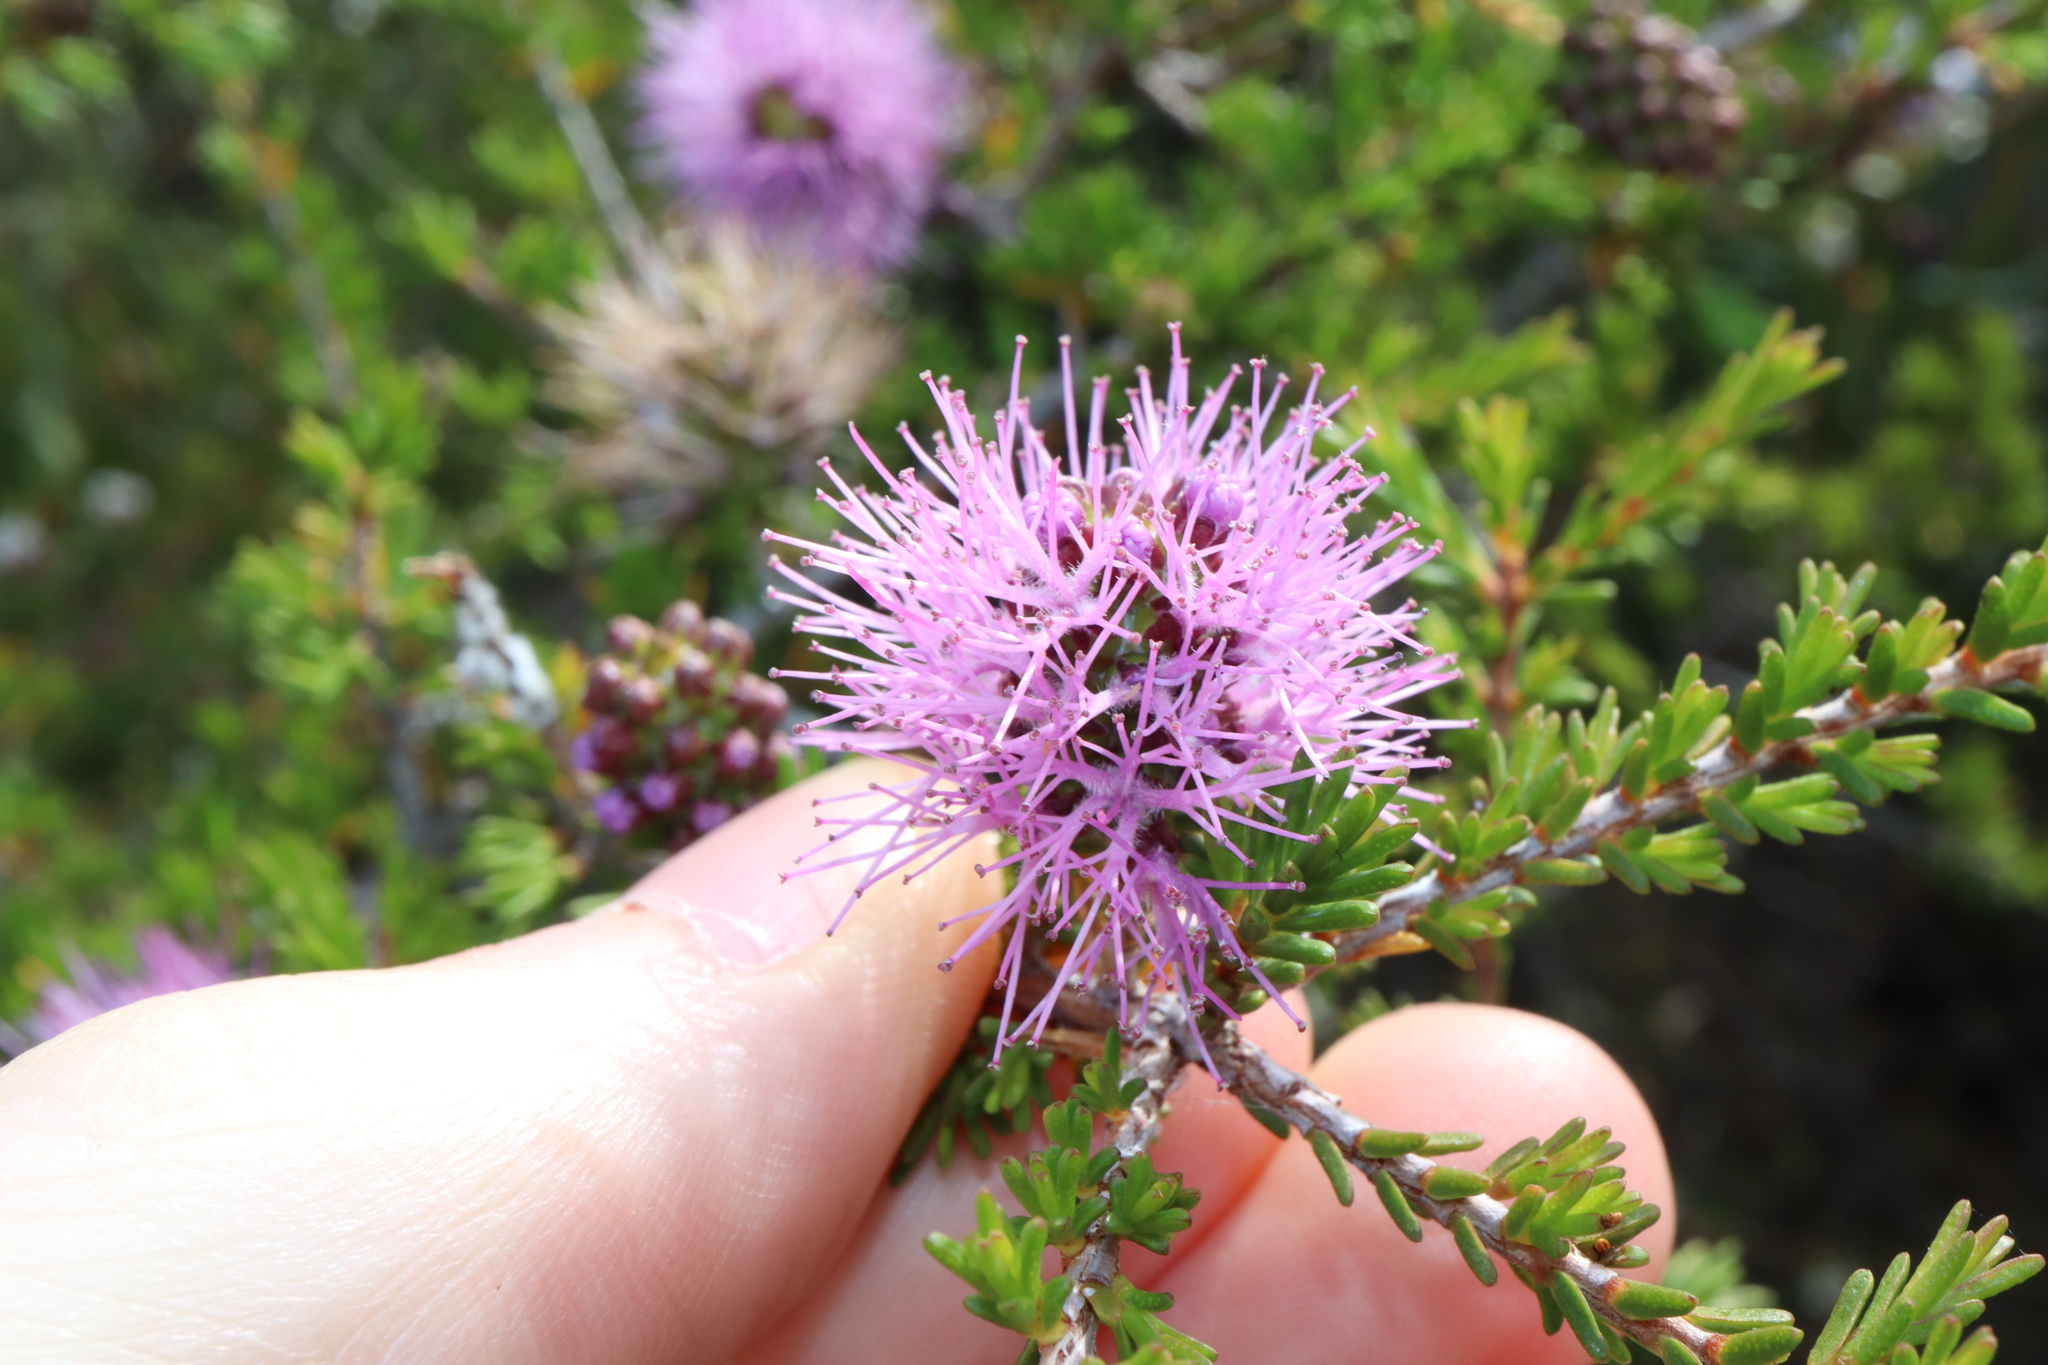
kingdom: Plantae
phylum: Tracheophyta
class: Magnoliopsida
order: Myrtales
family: Myrtaceae
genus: Melaleuca
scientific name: Melaleuca jonesii
